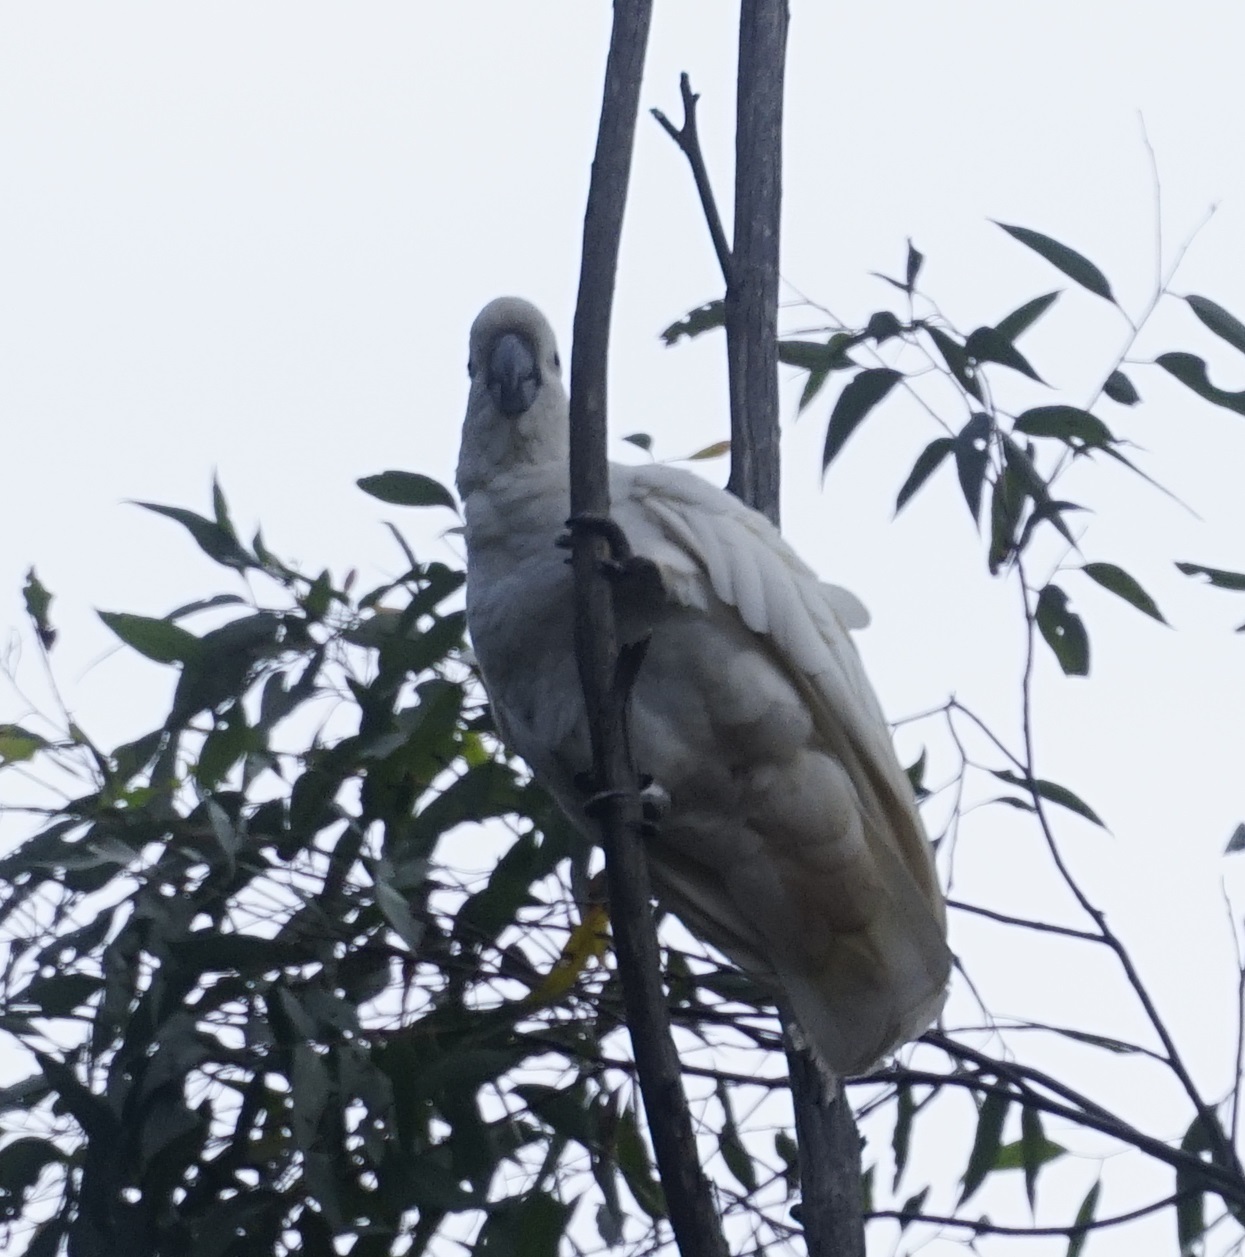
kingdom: Animalia
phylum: Chordata
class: Aves
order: Psittaciformes
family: Psittacidae
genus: Cacatua
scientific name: Cacatua galerita
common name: Sulphur-crested cockatoo
